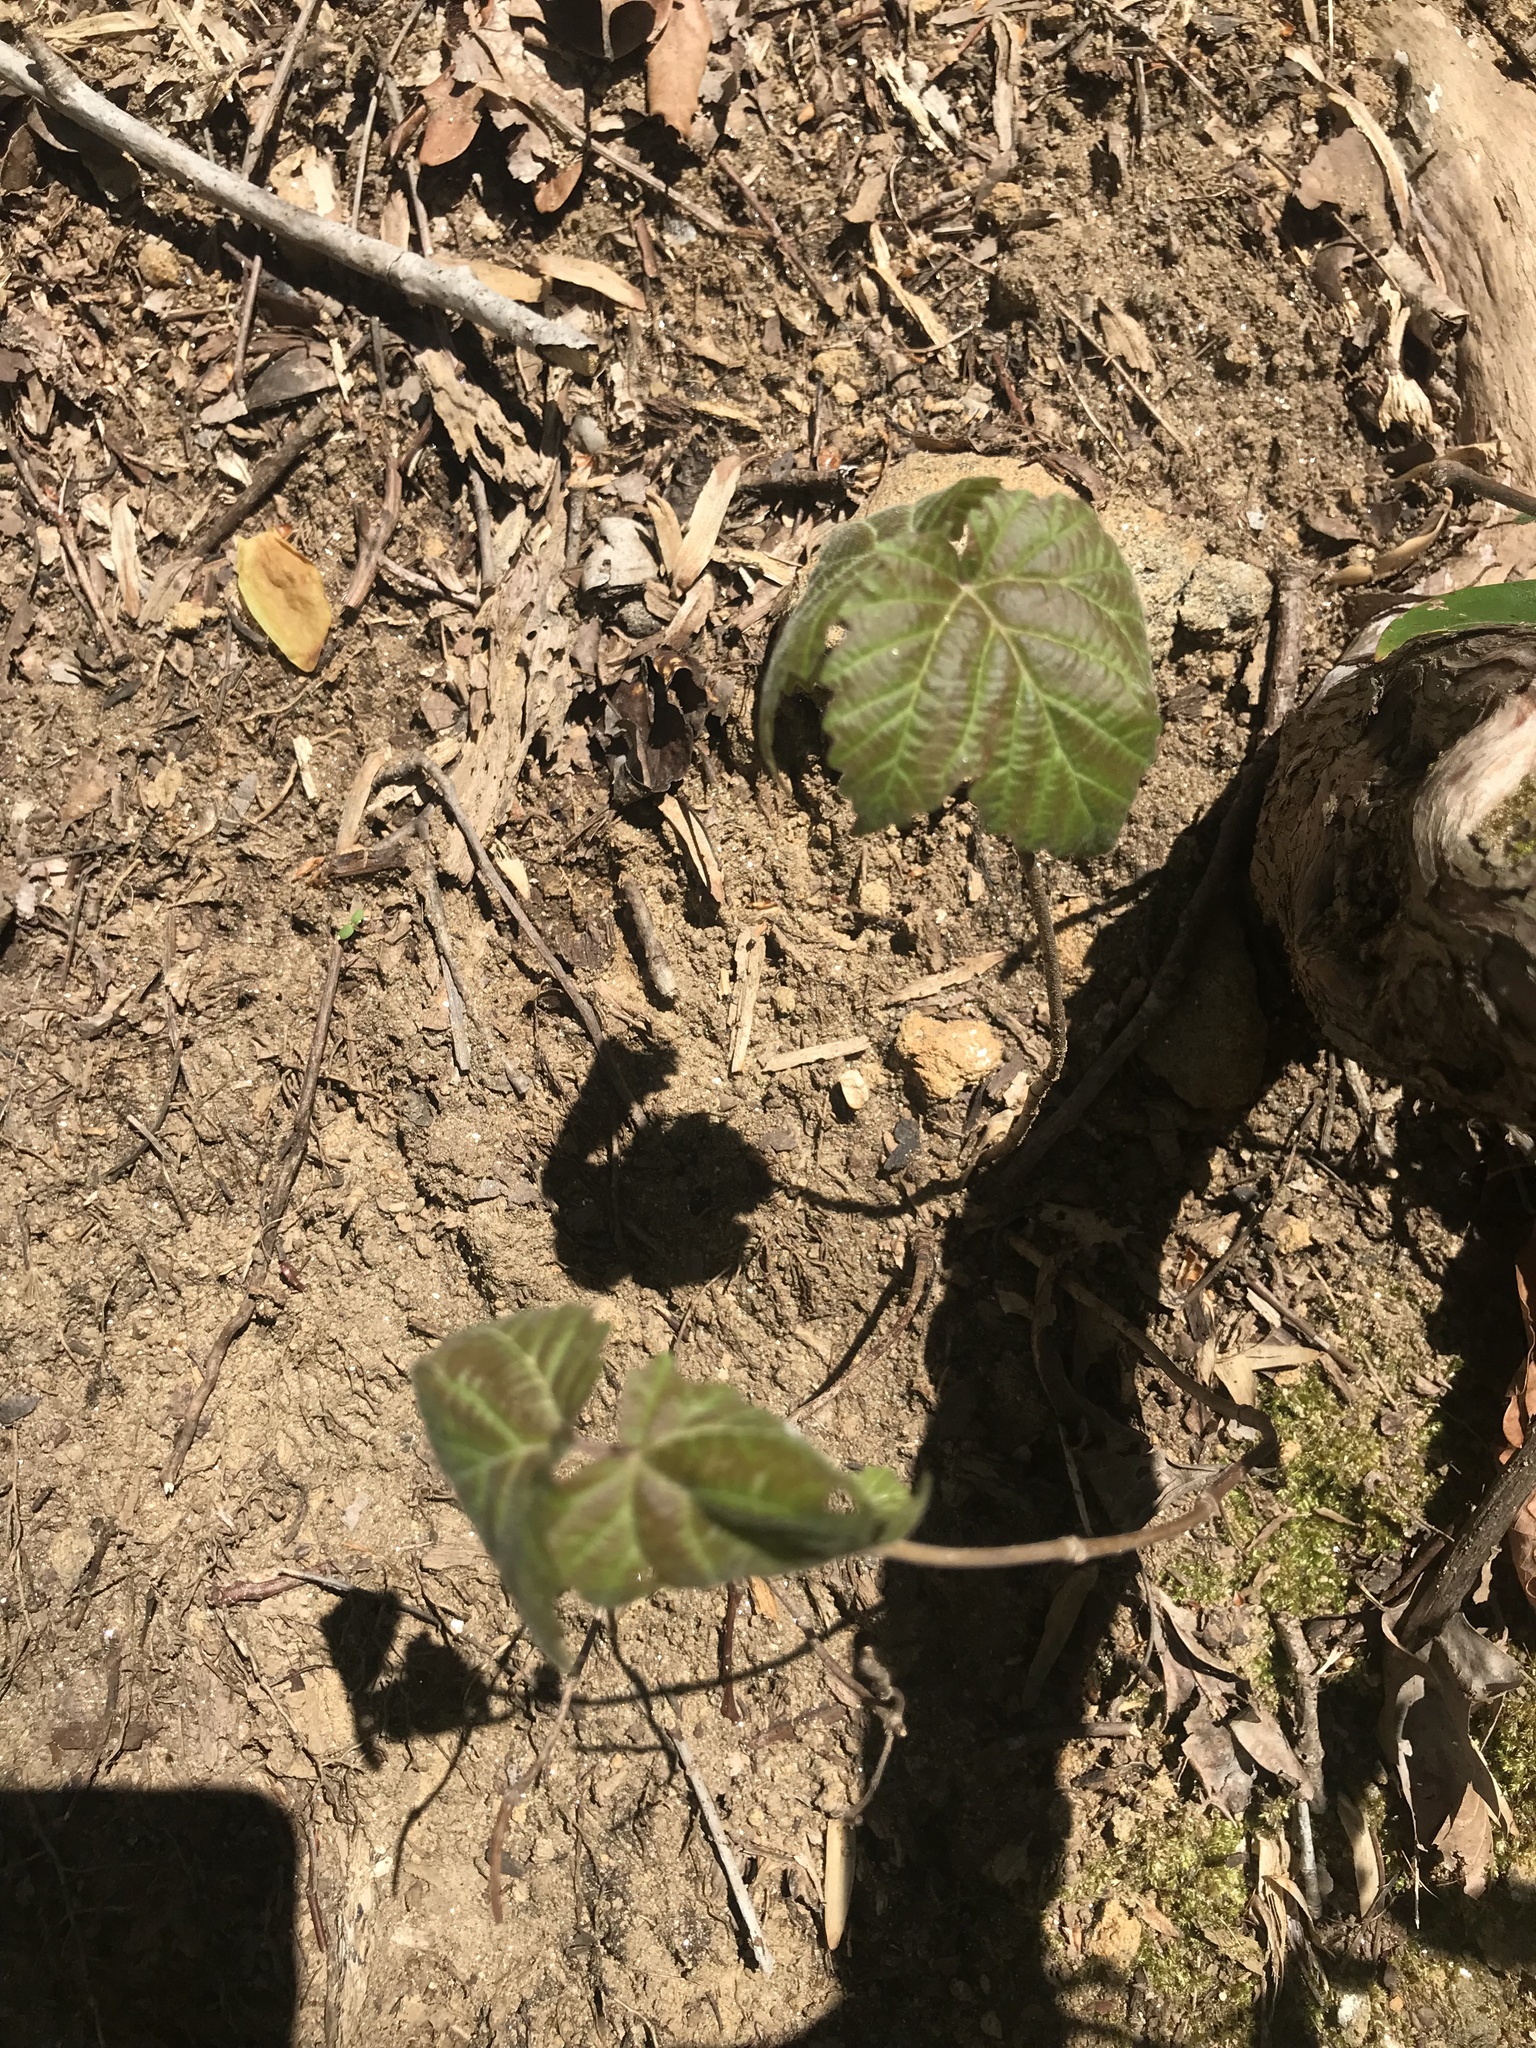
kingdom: Plantae
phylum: Tracheophyta
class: Magnoliopsida
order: Dipsacales
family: Viburnaceae
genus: Viburnum
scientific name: Viburnum acerifolium
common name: Dockmackie
